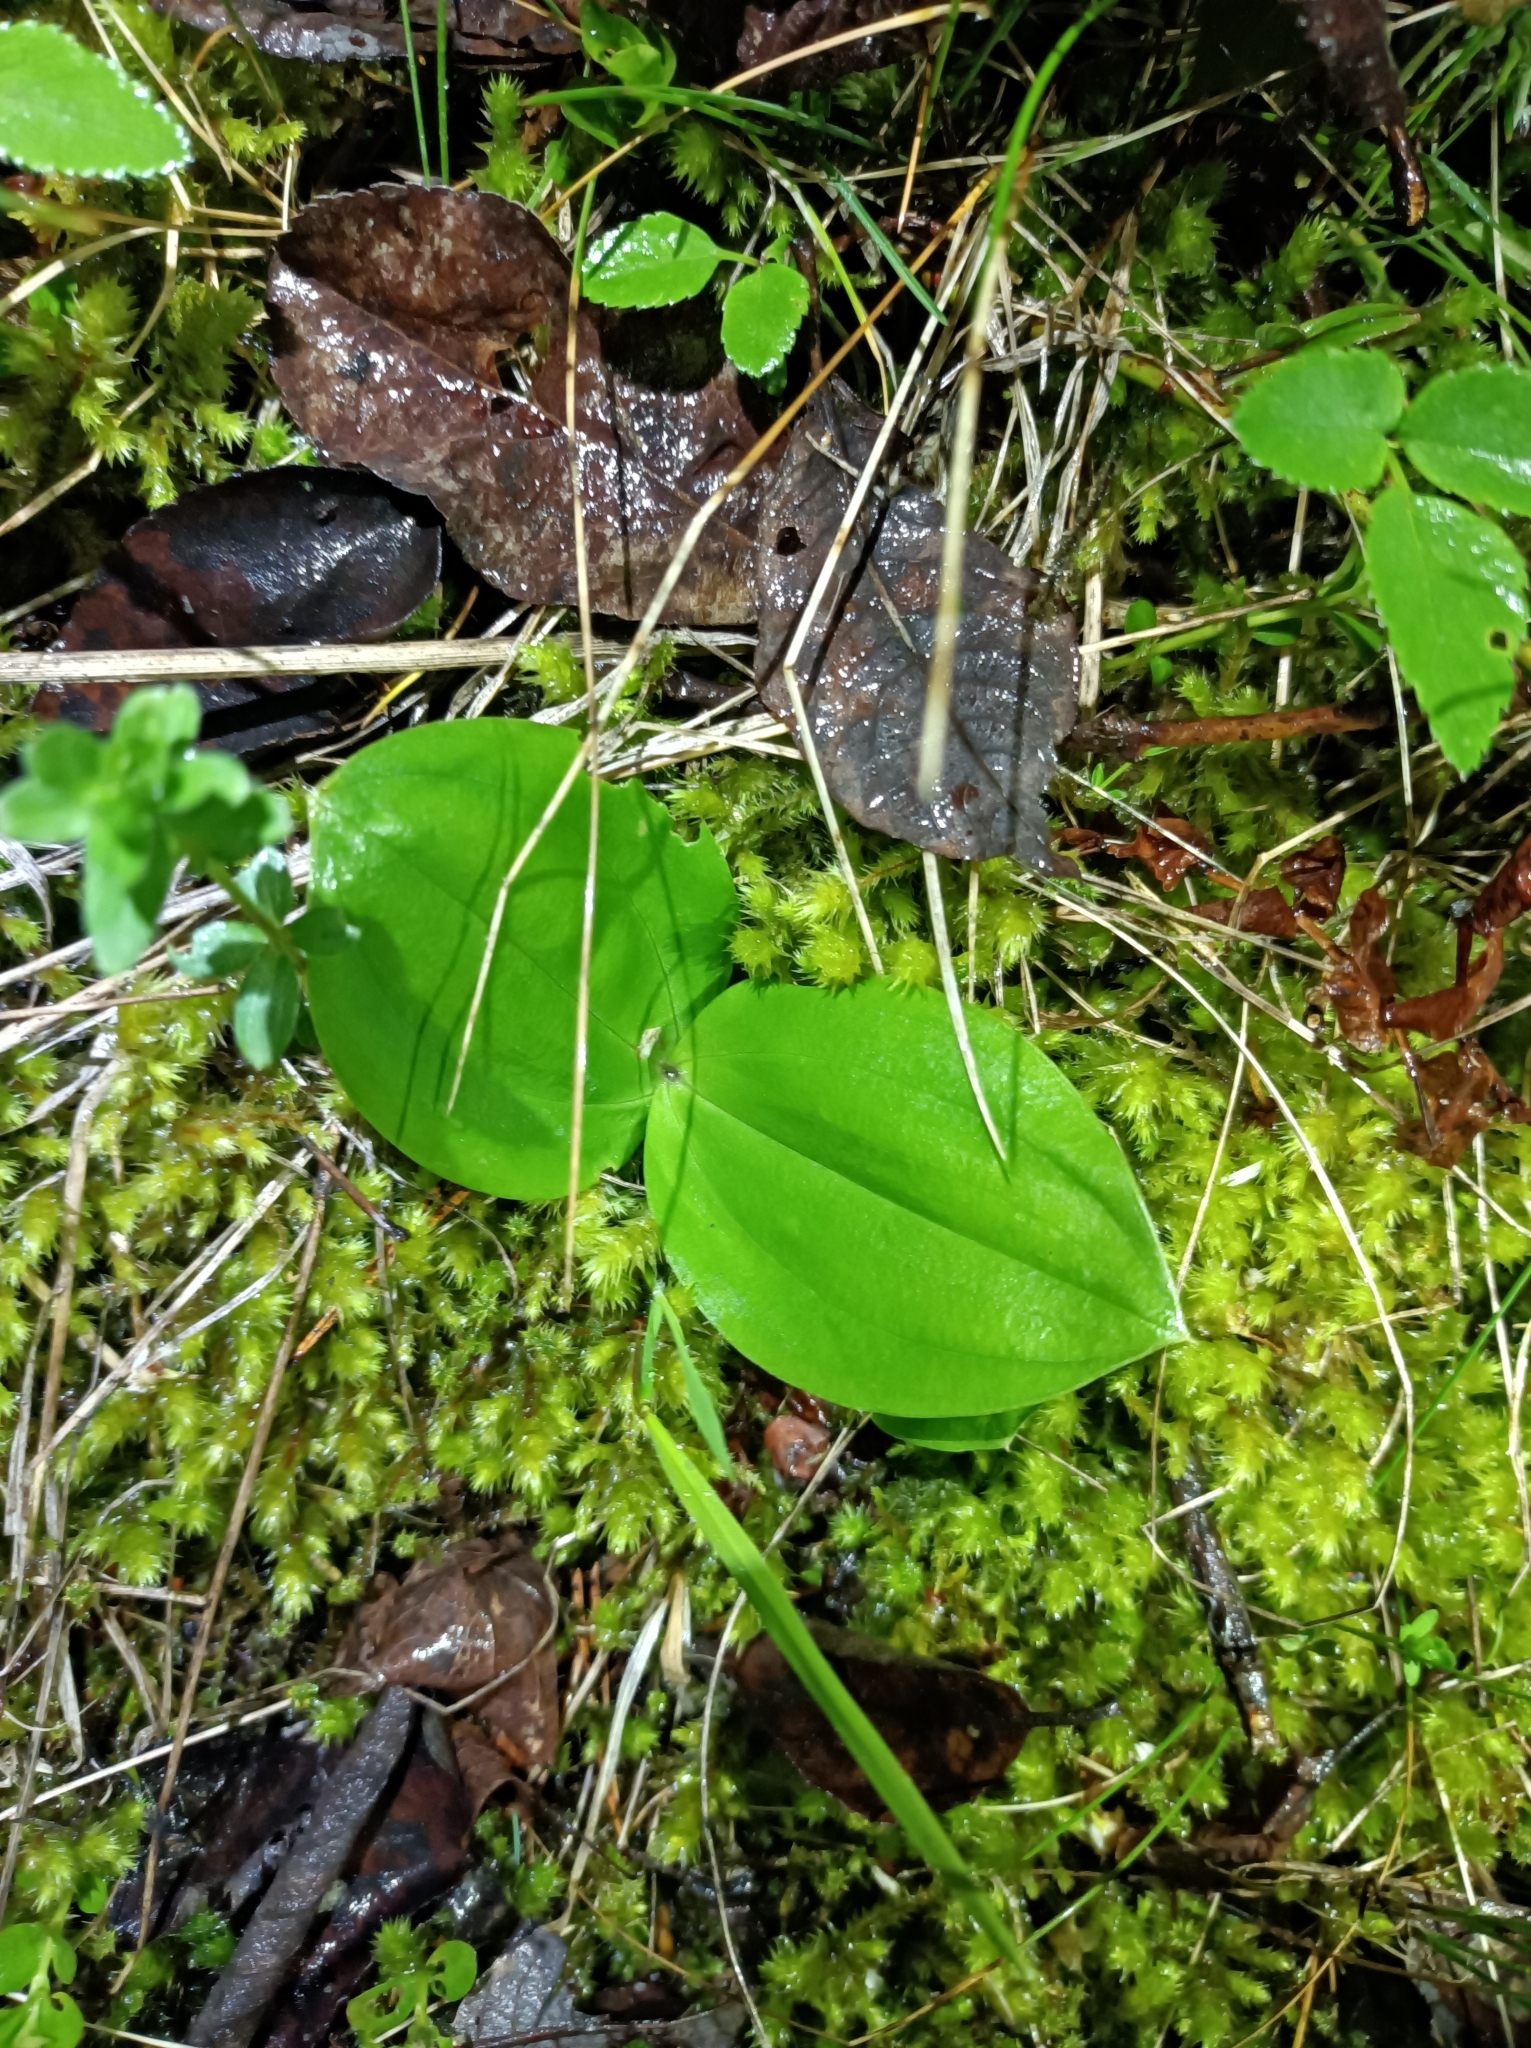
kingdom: Plantae
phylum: Tracheophyta
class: Liliopsida
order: Asparagales
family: Orchidaceae
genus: Neottia
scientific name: Neottia ovata
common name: Common twayblade
